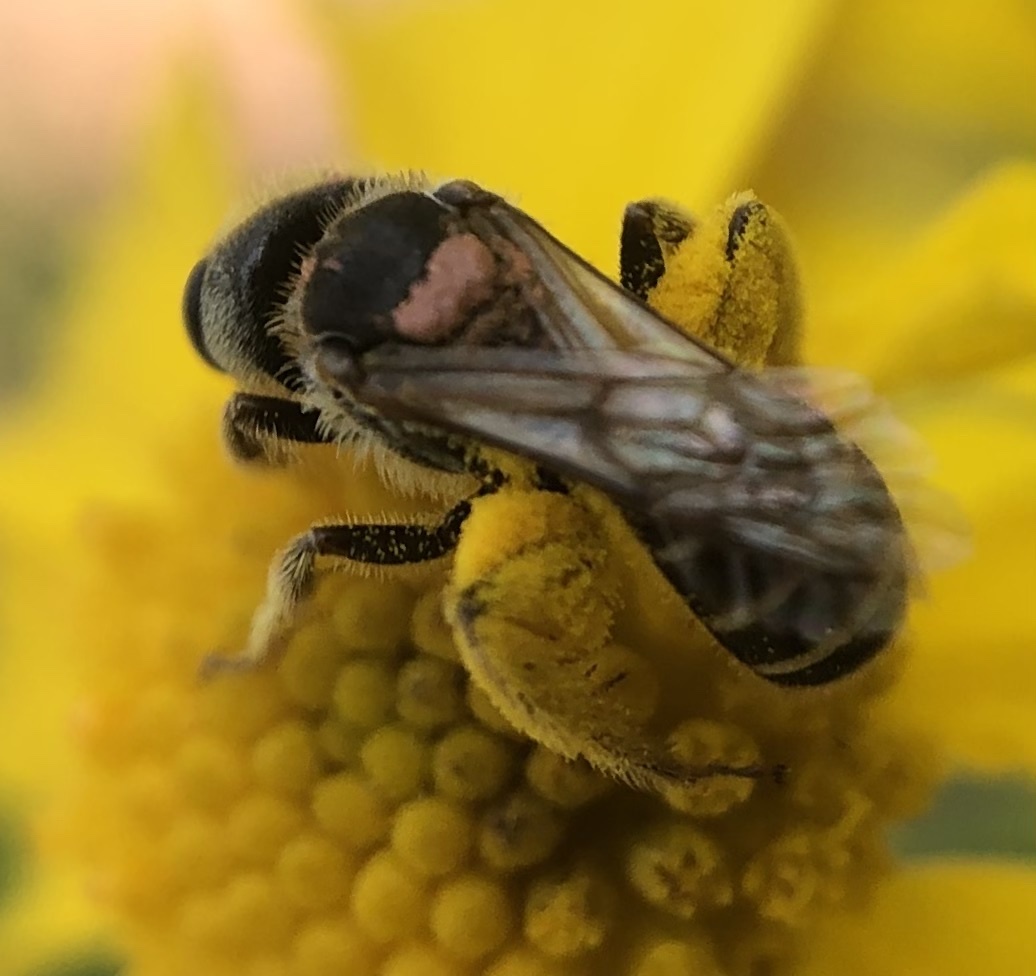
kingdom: Animalia
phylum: Arthropoda
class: Insecta
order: Hymenoptera
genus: Odontalictus
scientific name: Odontalictus
